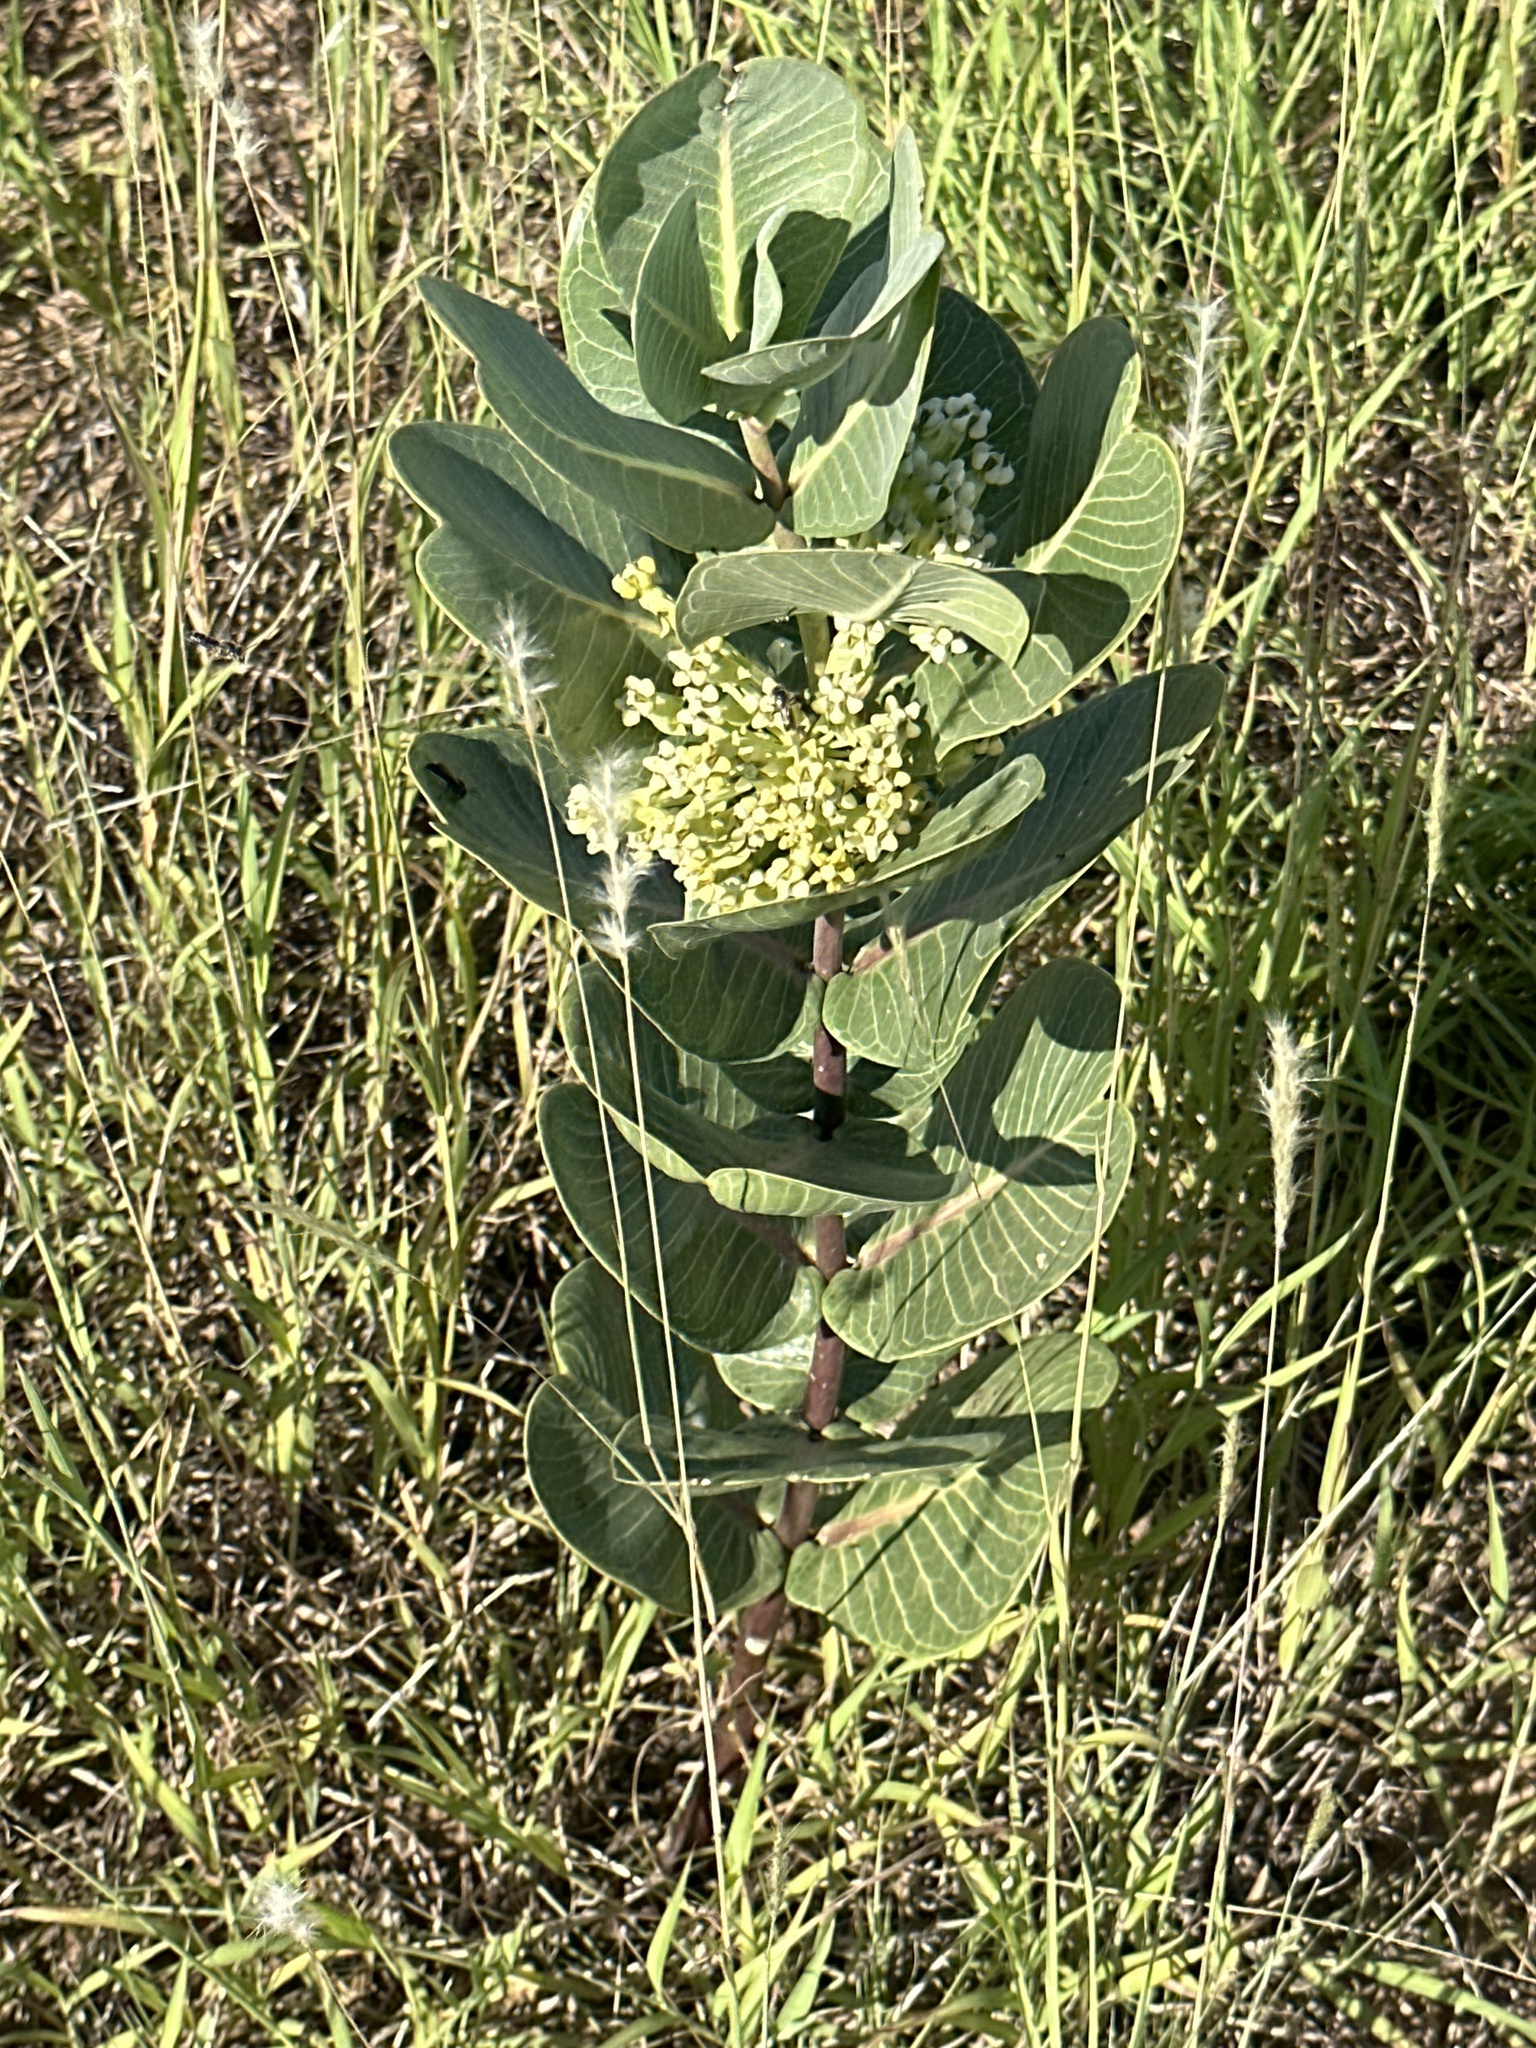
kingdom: Plantae
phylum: Tracheophyta
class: Magnoliopsida
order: Gentianales
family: Apocynaceae
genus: Asclepias
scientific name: Asclepias latifolia
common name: Broadleaf milkweed
